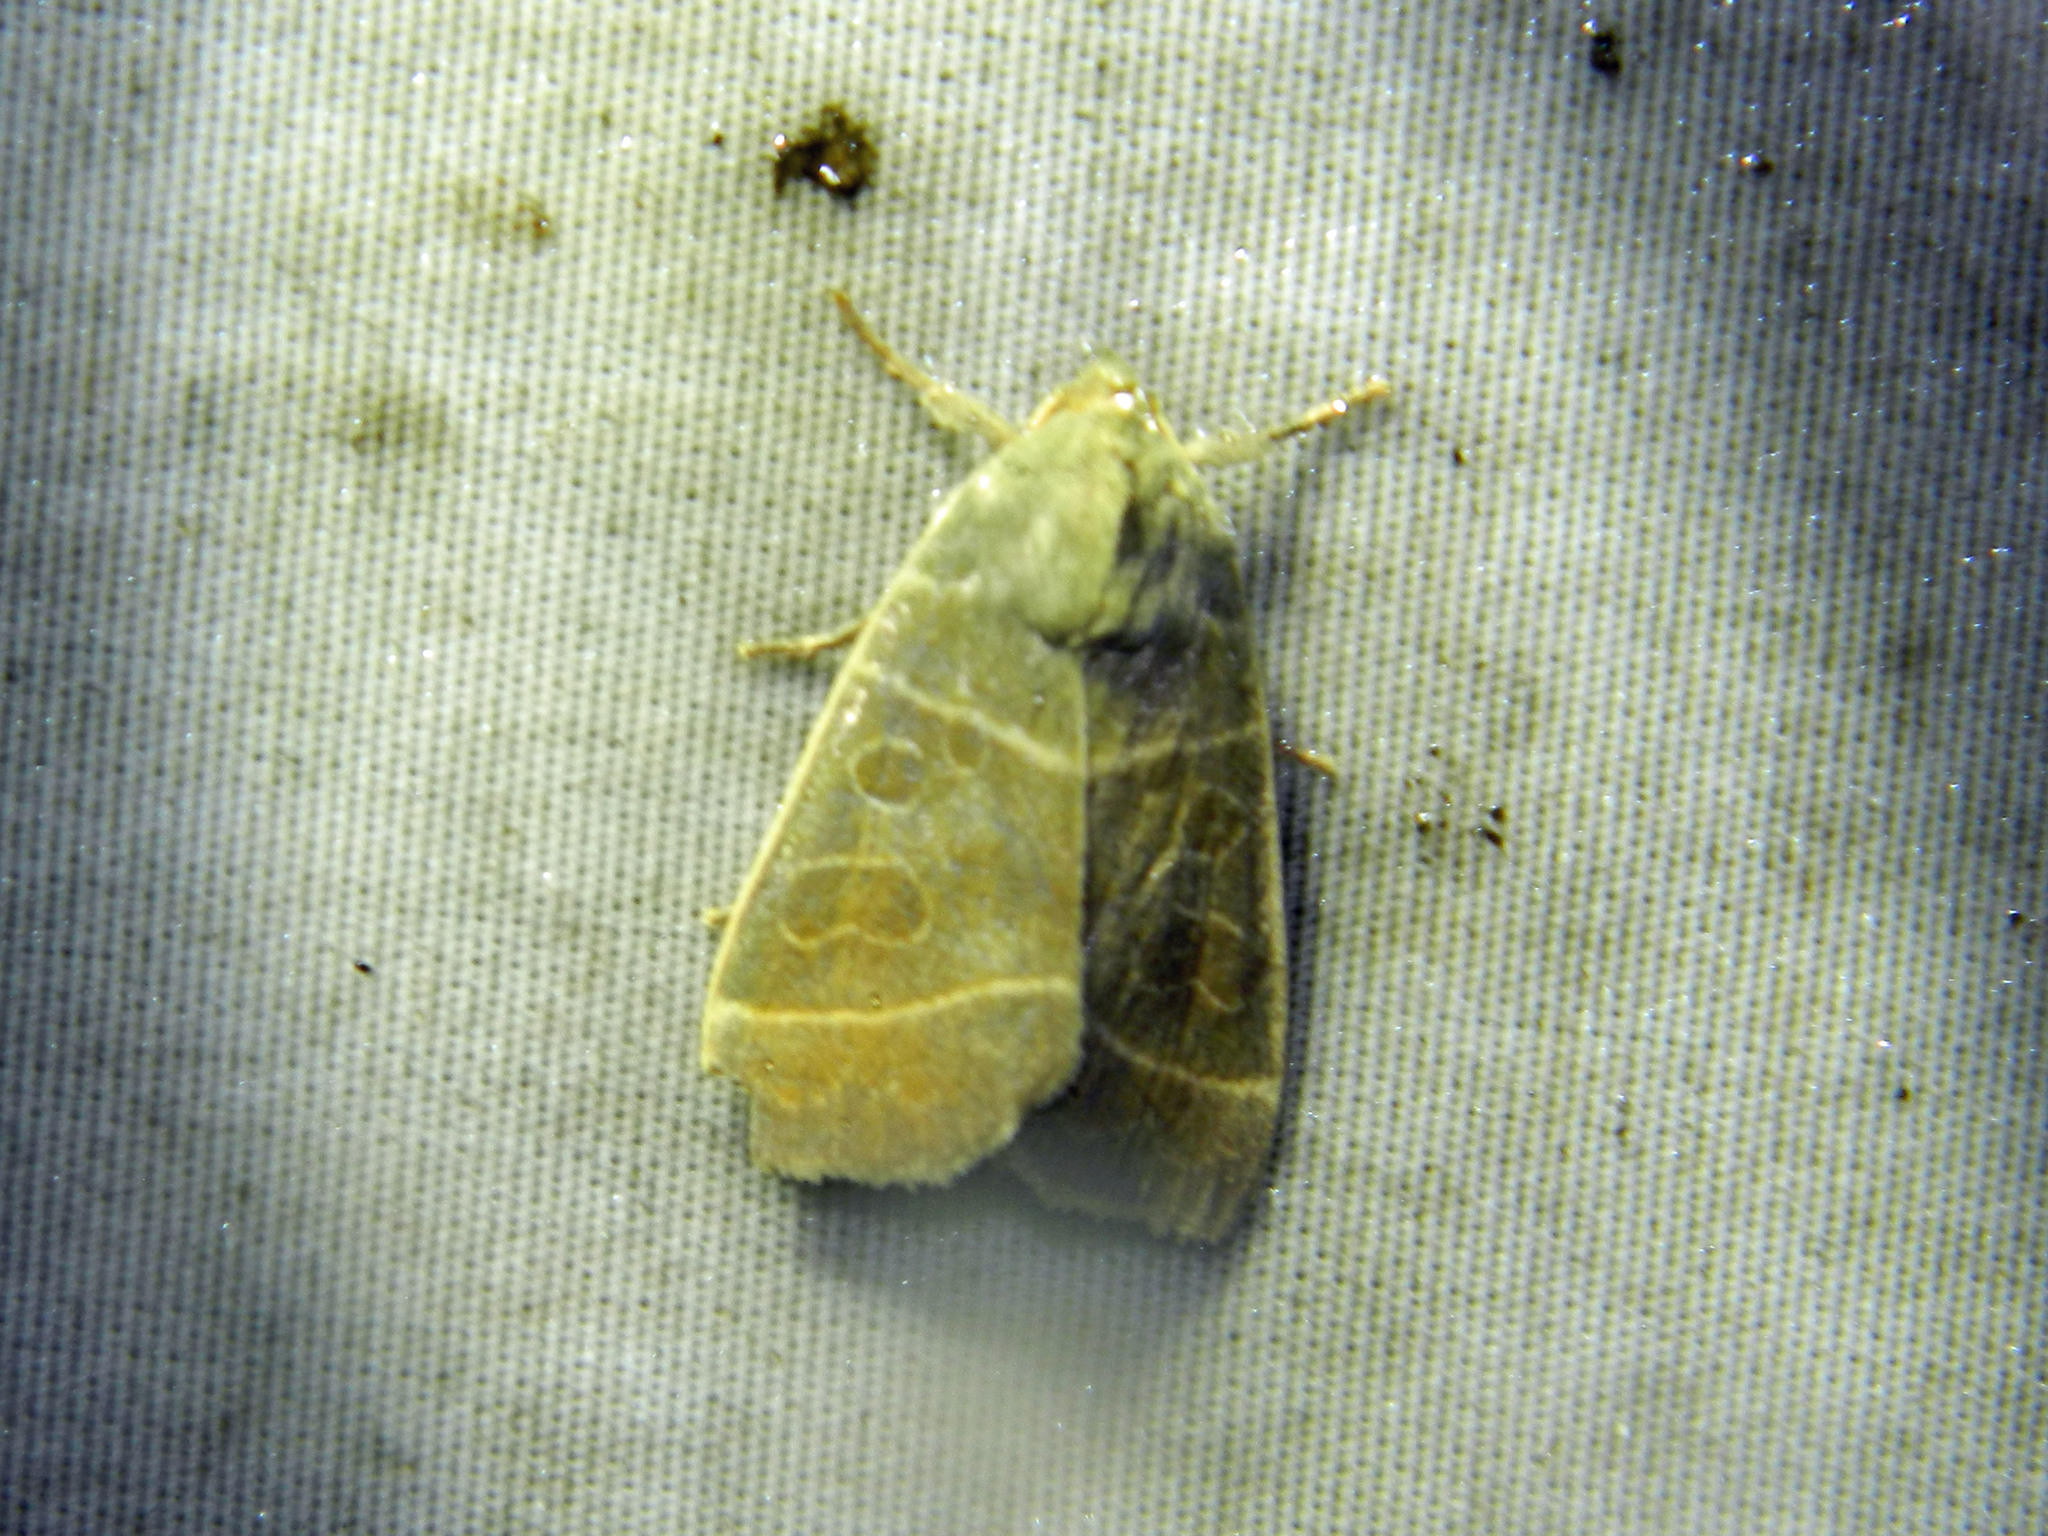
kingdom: Animalia
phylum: Arthropoda
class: Insecta
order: Lepidoptera
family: Noctuidae
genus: Ipimorpha
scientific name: Ipimorpha pleonectusa
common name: Even-lined sallow
